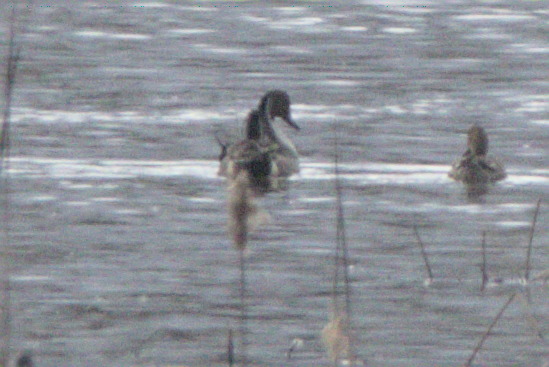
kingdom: Animalia
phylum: Chordata
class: Aves
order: Anseriformes
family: Anatidae
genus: Anas
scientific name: Anas acuta
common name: Northern pintail
